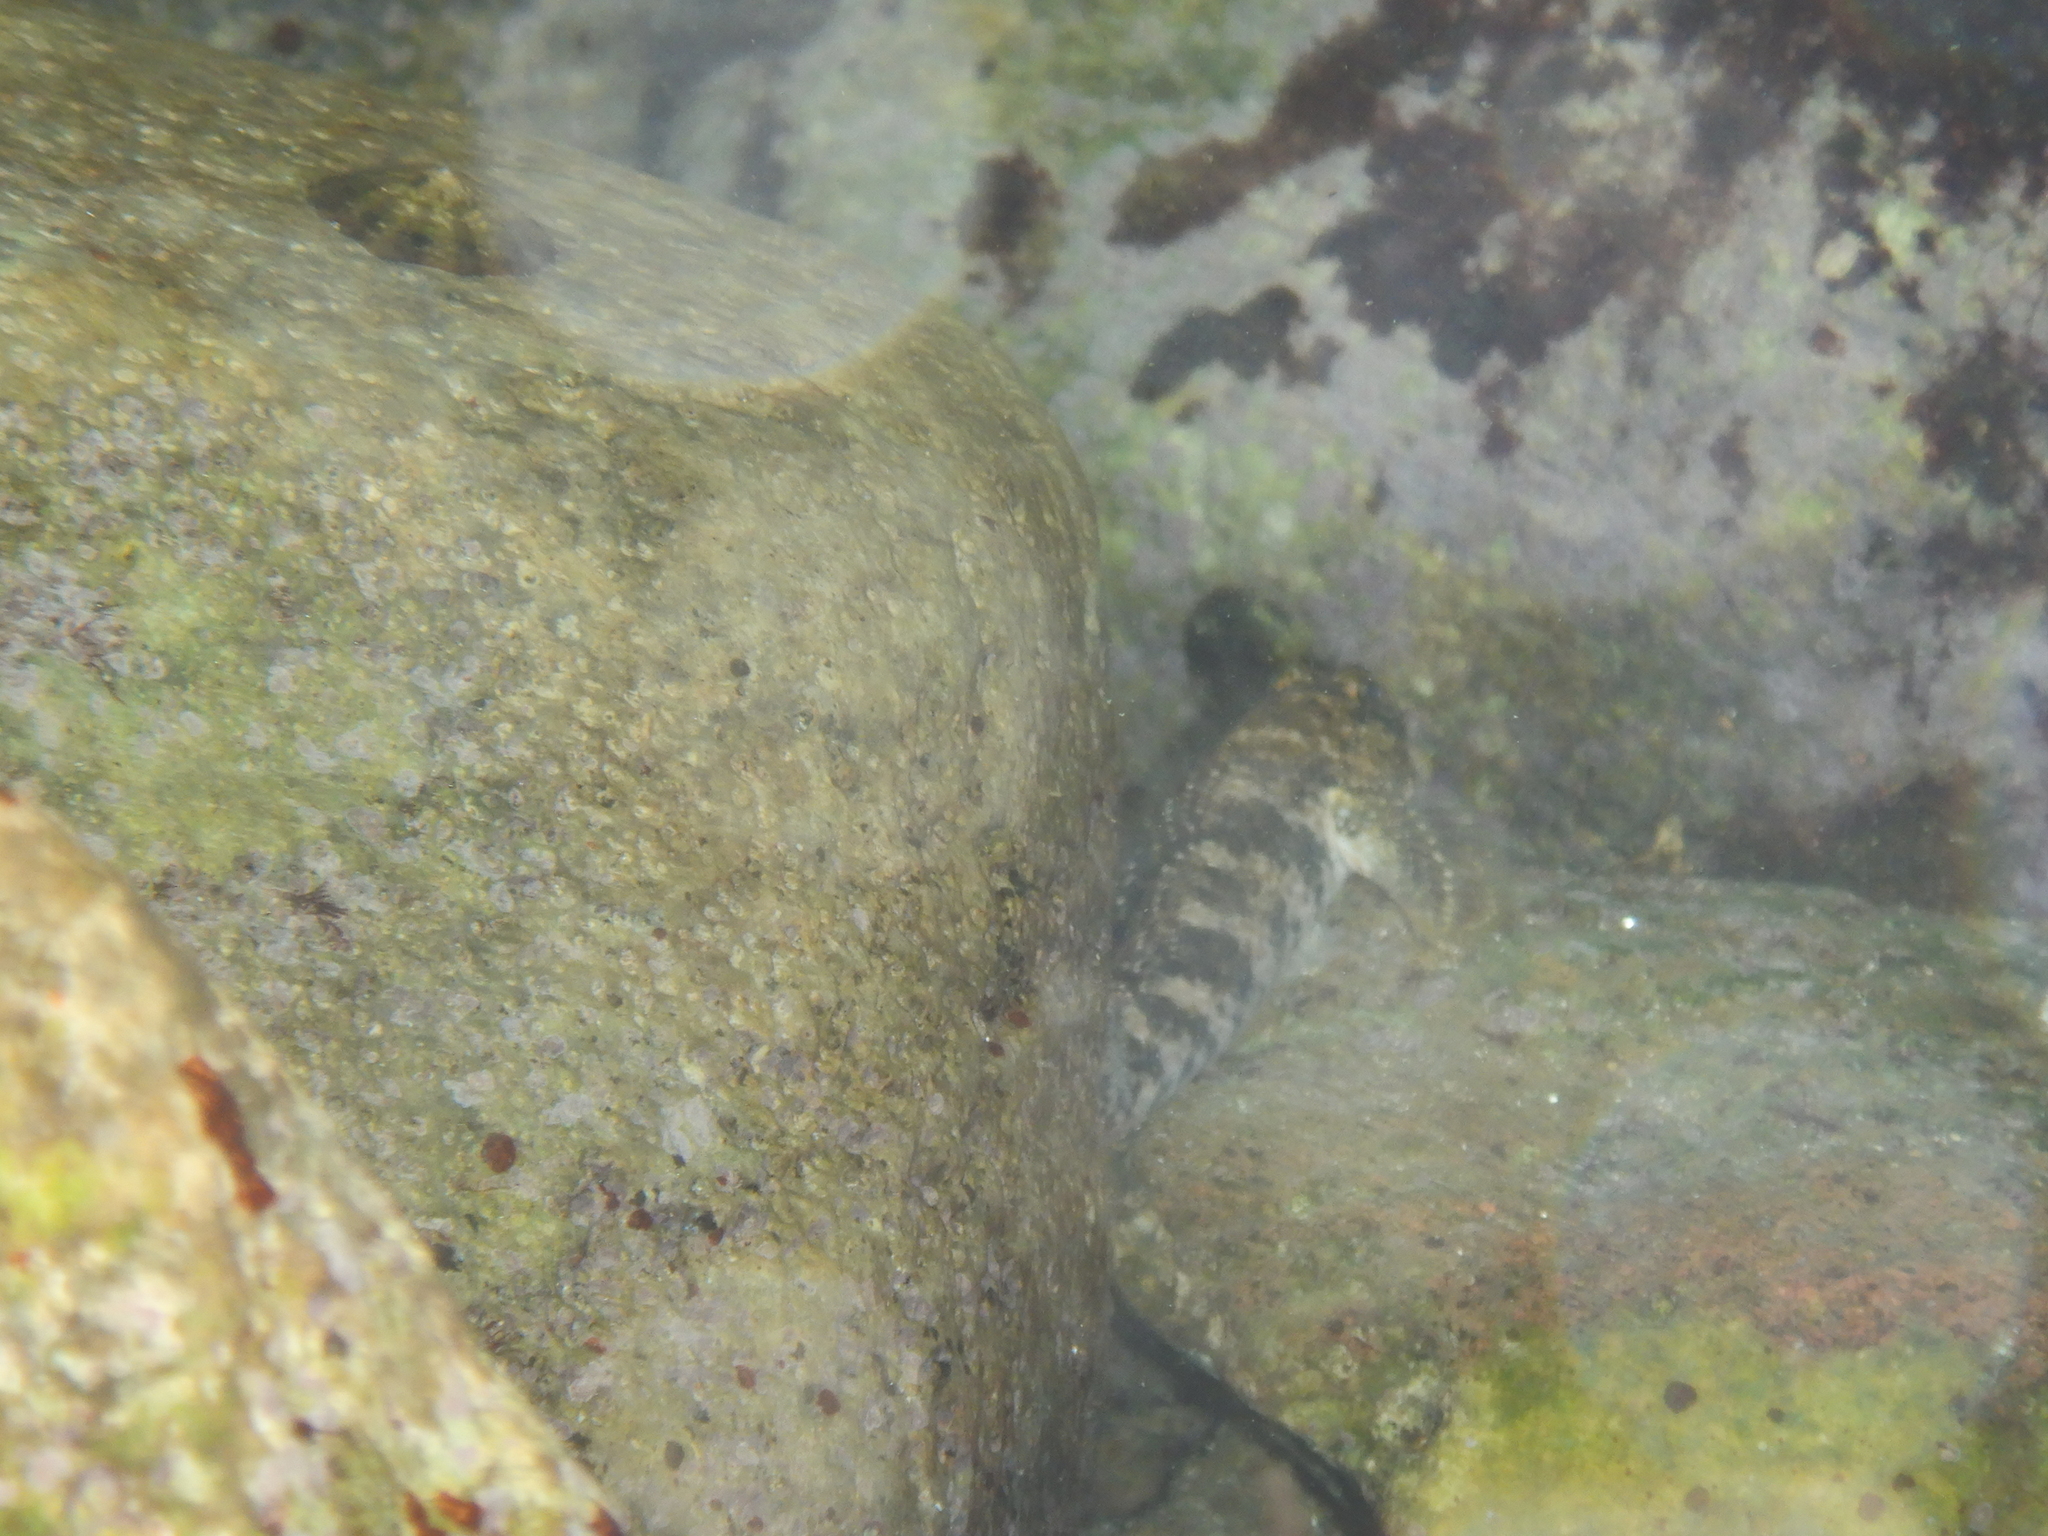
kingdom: Animalia
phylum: Chordata
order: Perciformes
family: Gobiidae
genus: Gobius
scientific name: Gobius
